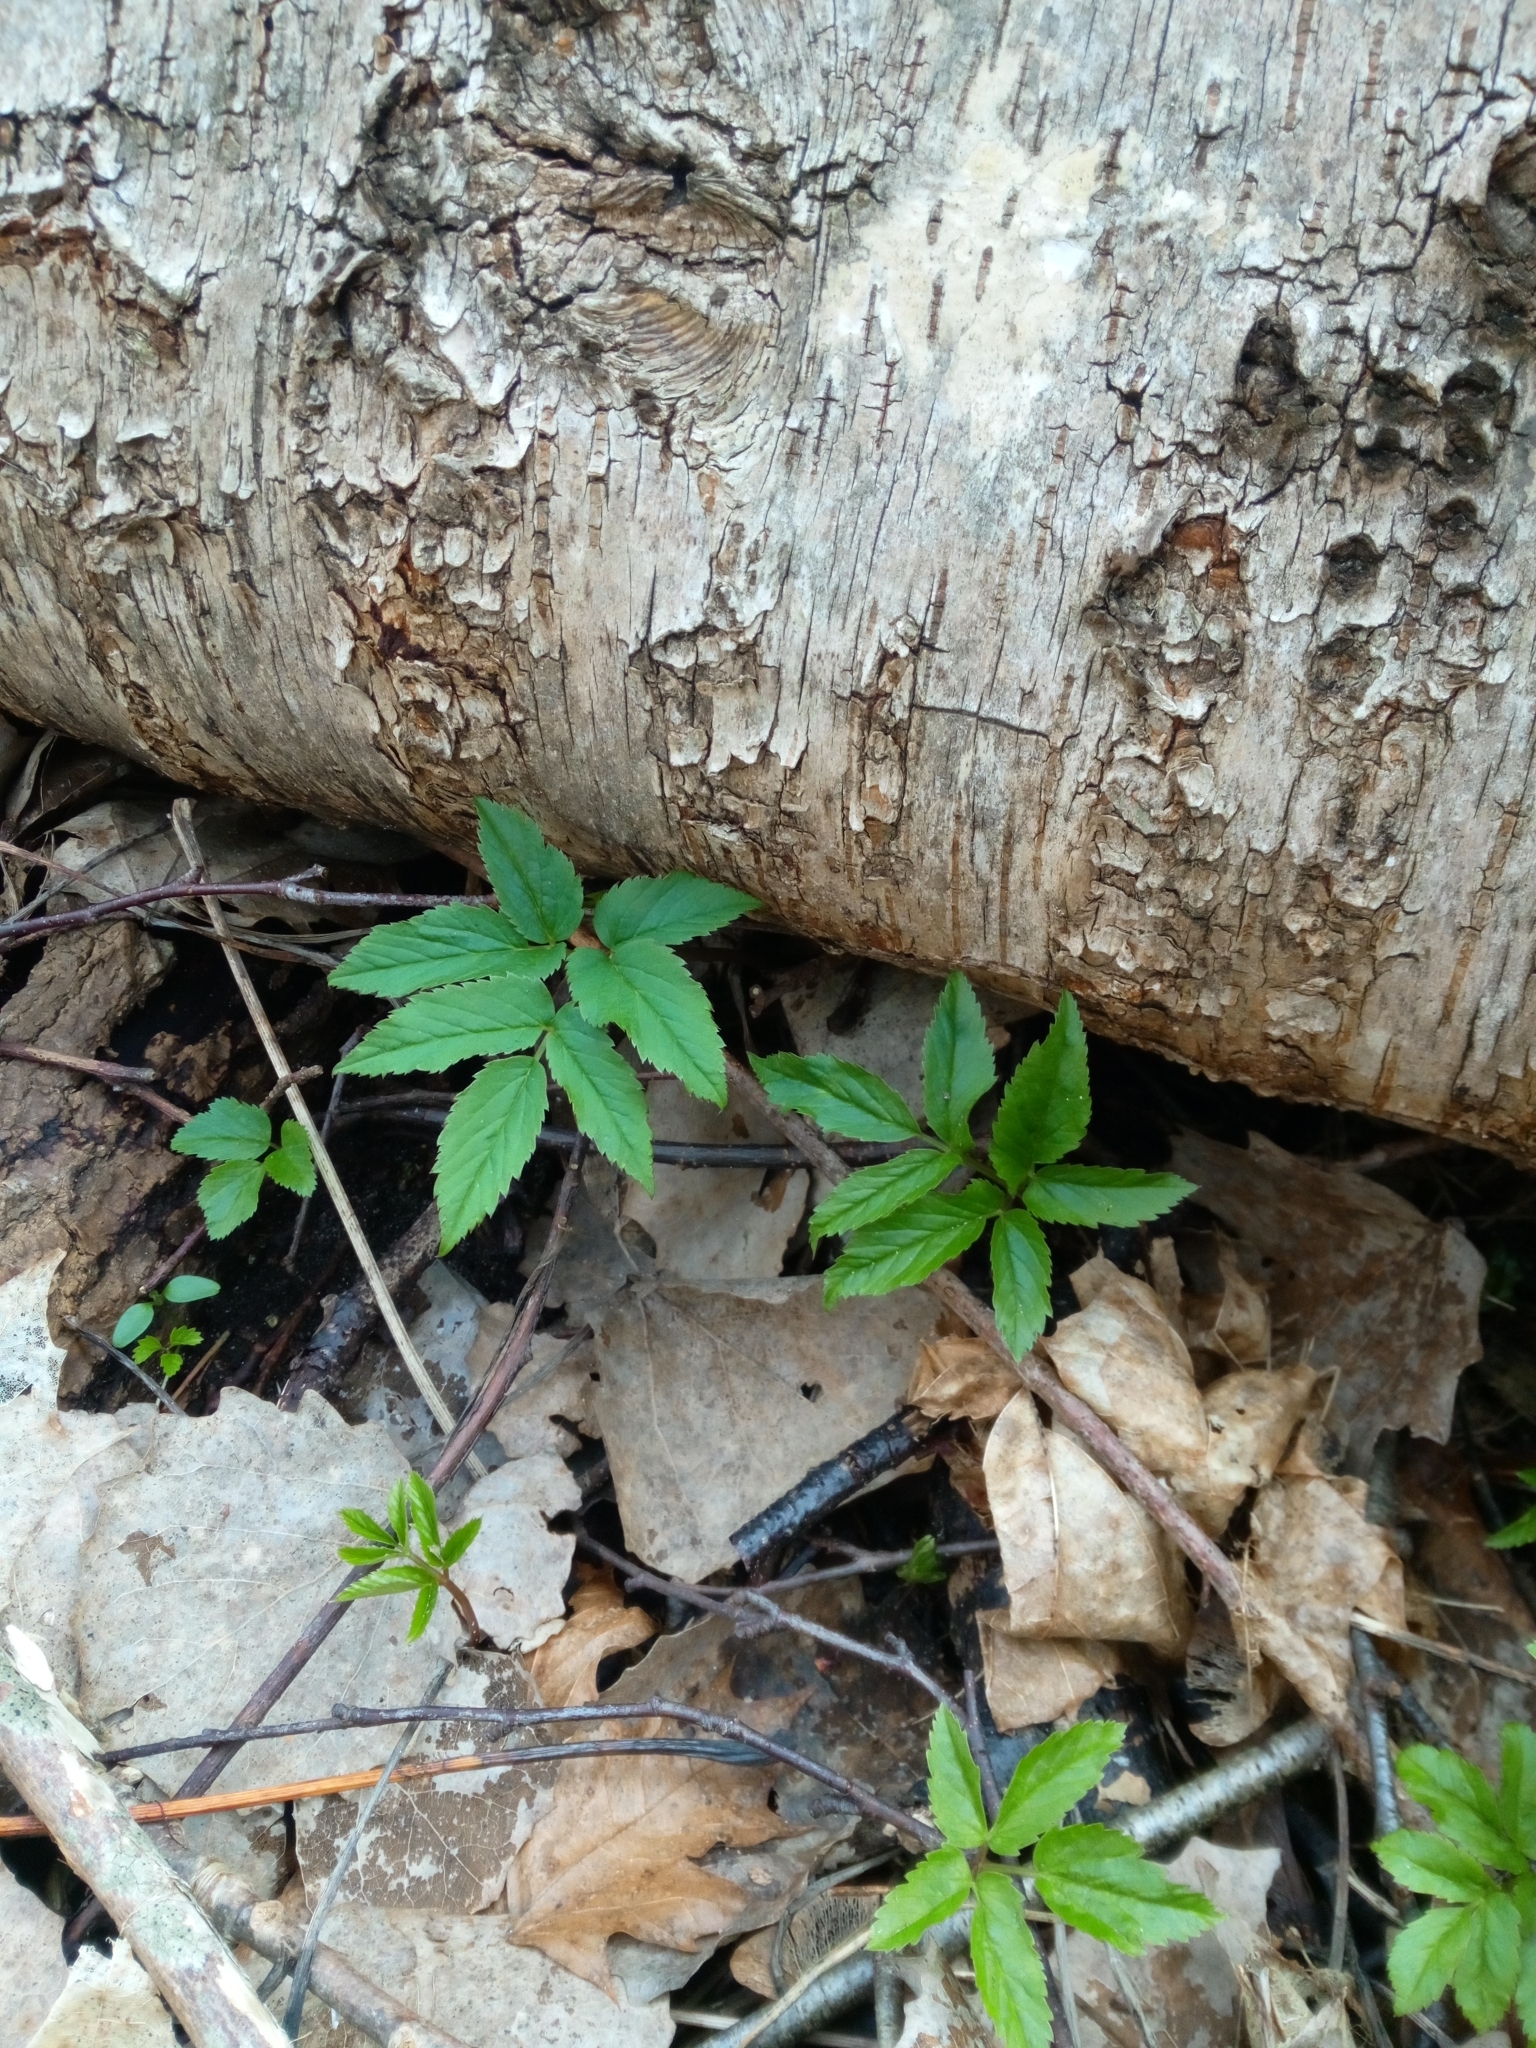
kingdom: Plantae
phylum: Tracheophyta
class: Magnoliopsida
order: Apiales
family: Apiaceae
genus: Aegopodium
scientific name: Aegopodium podagraria
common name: Ground-elder
